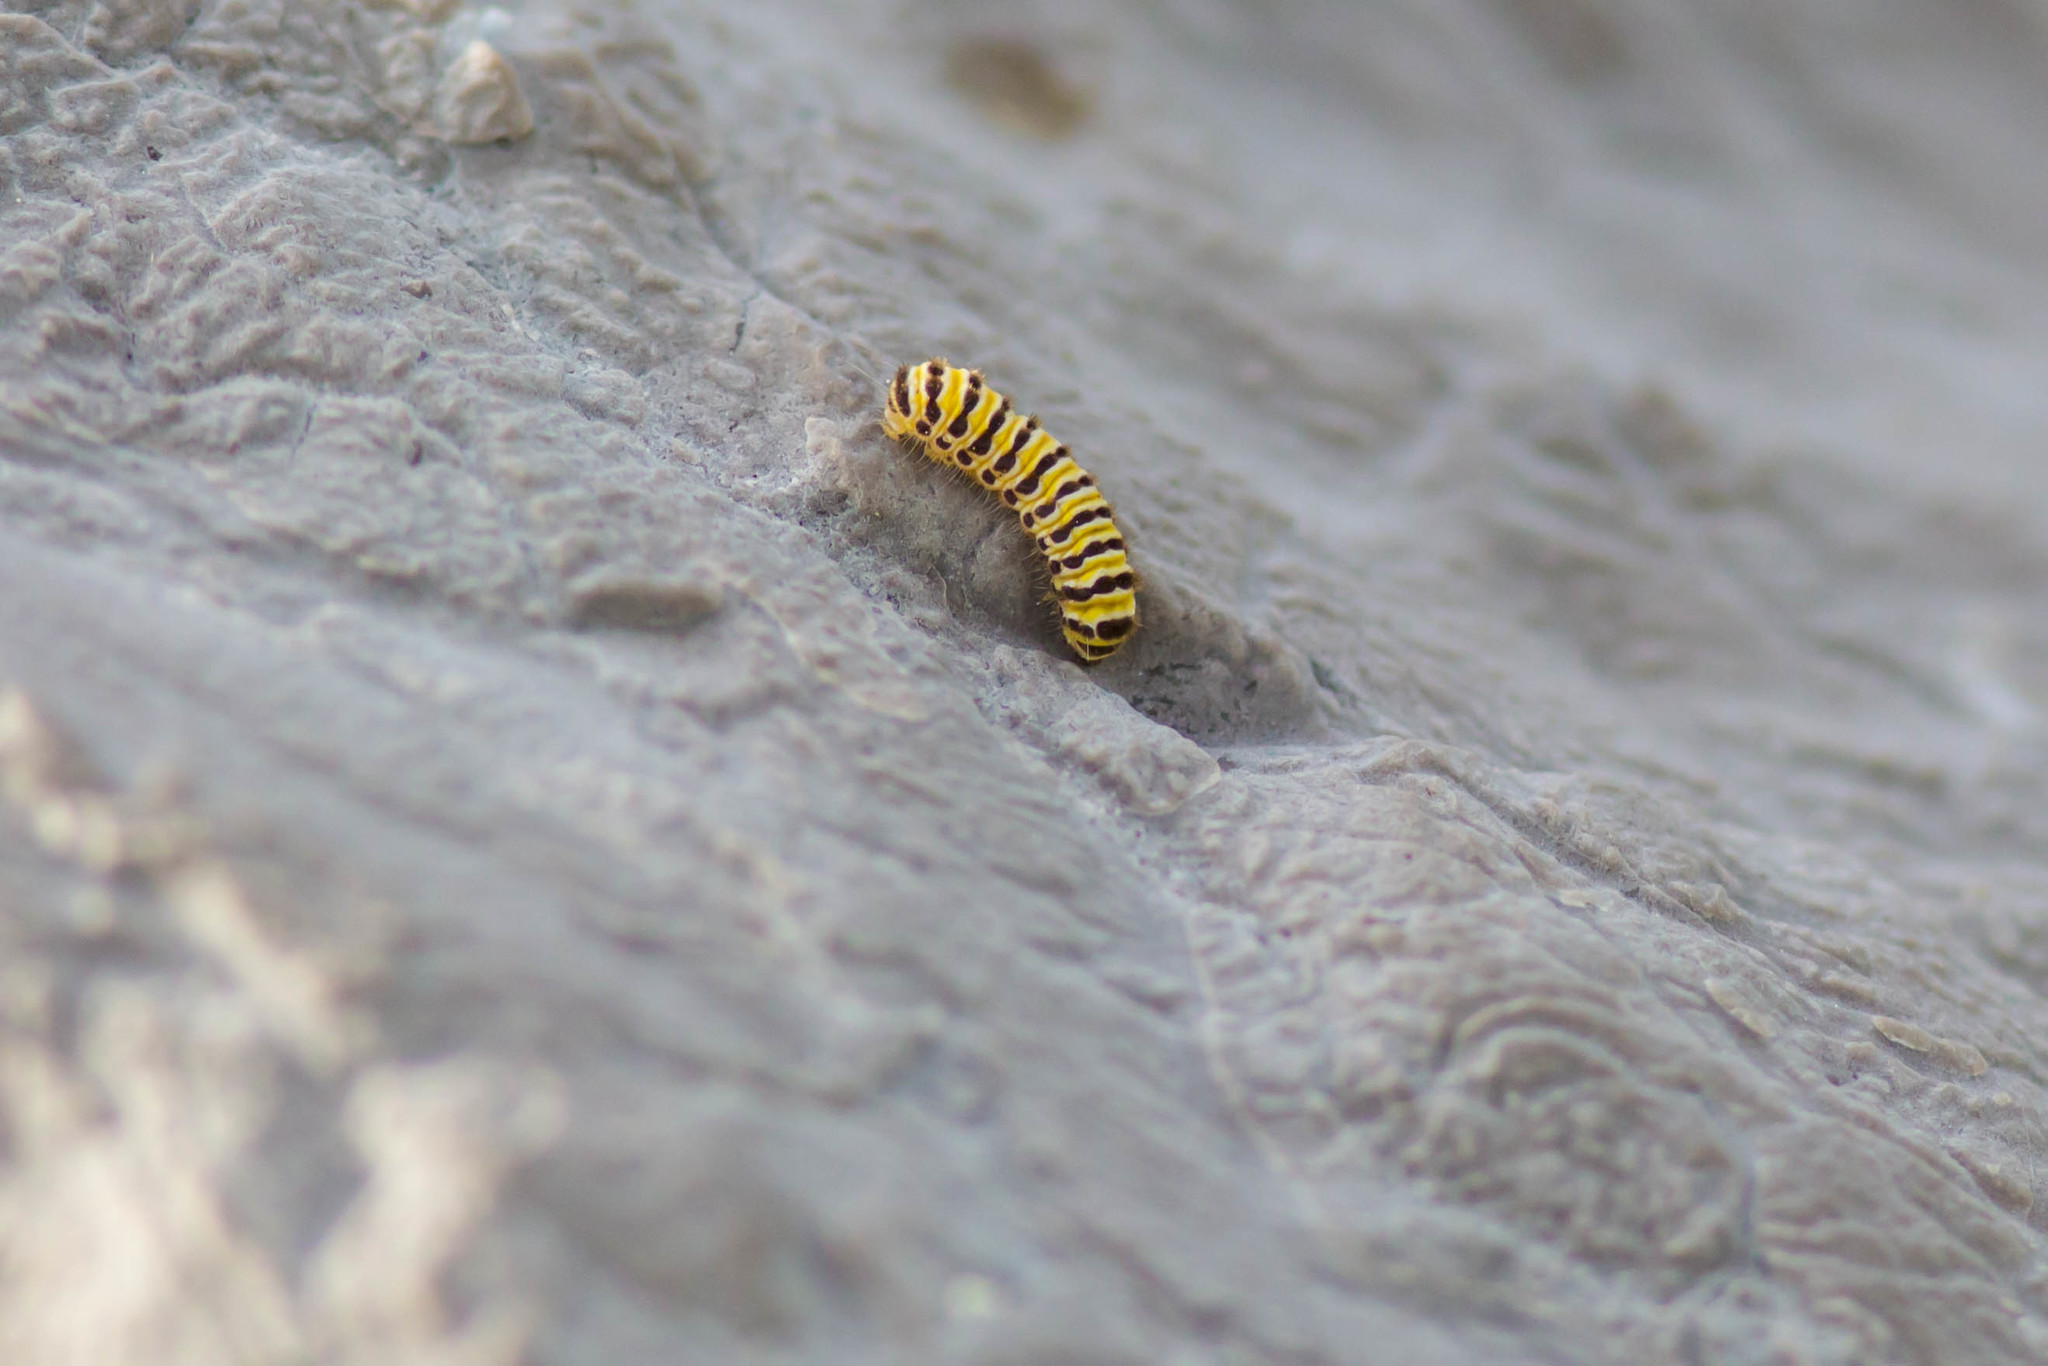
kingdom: Animalia
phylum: Arthropoda
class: Insecta
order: Lepidoptera
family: Zygaenidae
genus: Harrisina
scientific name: Harrisina americana
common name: Grapeleaf skeletonizer moth
